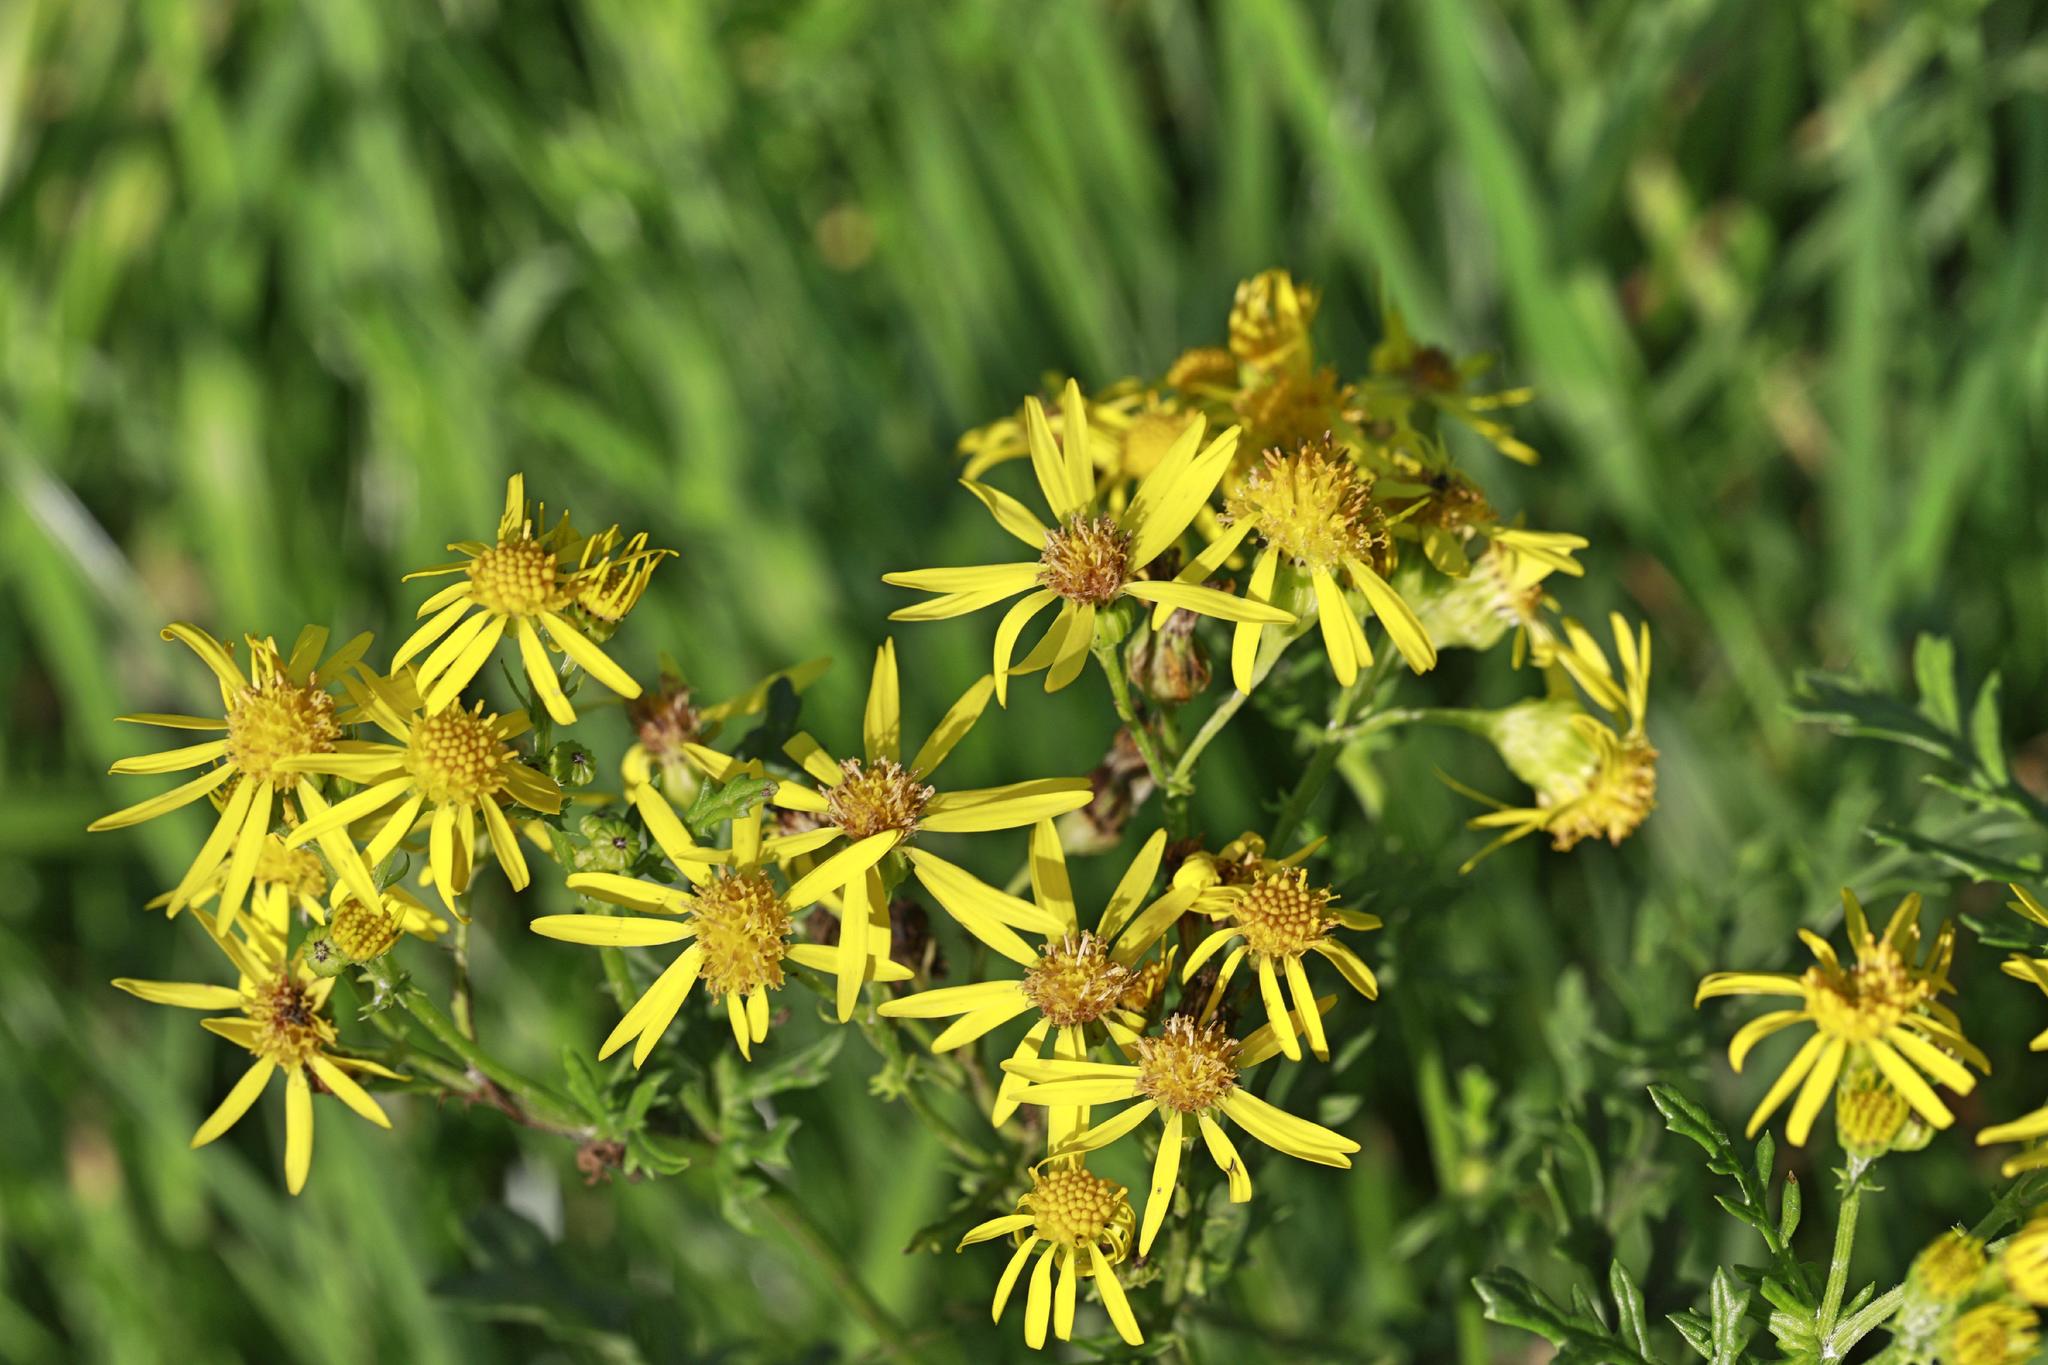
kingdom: Plantae
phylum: Tracheophyta
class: Magnoliopsida
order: Asterales
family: Asteraceae
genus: Jacobaea
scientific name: Jacobaea vulgaris
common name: Stinking willie
